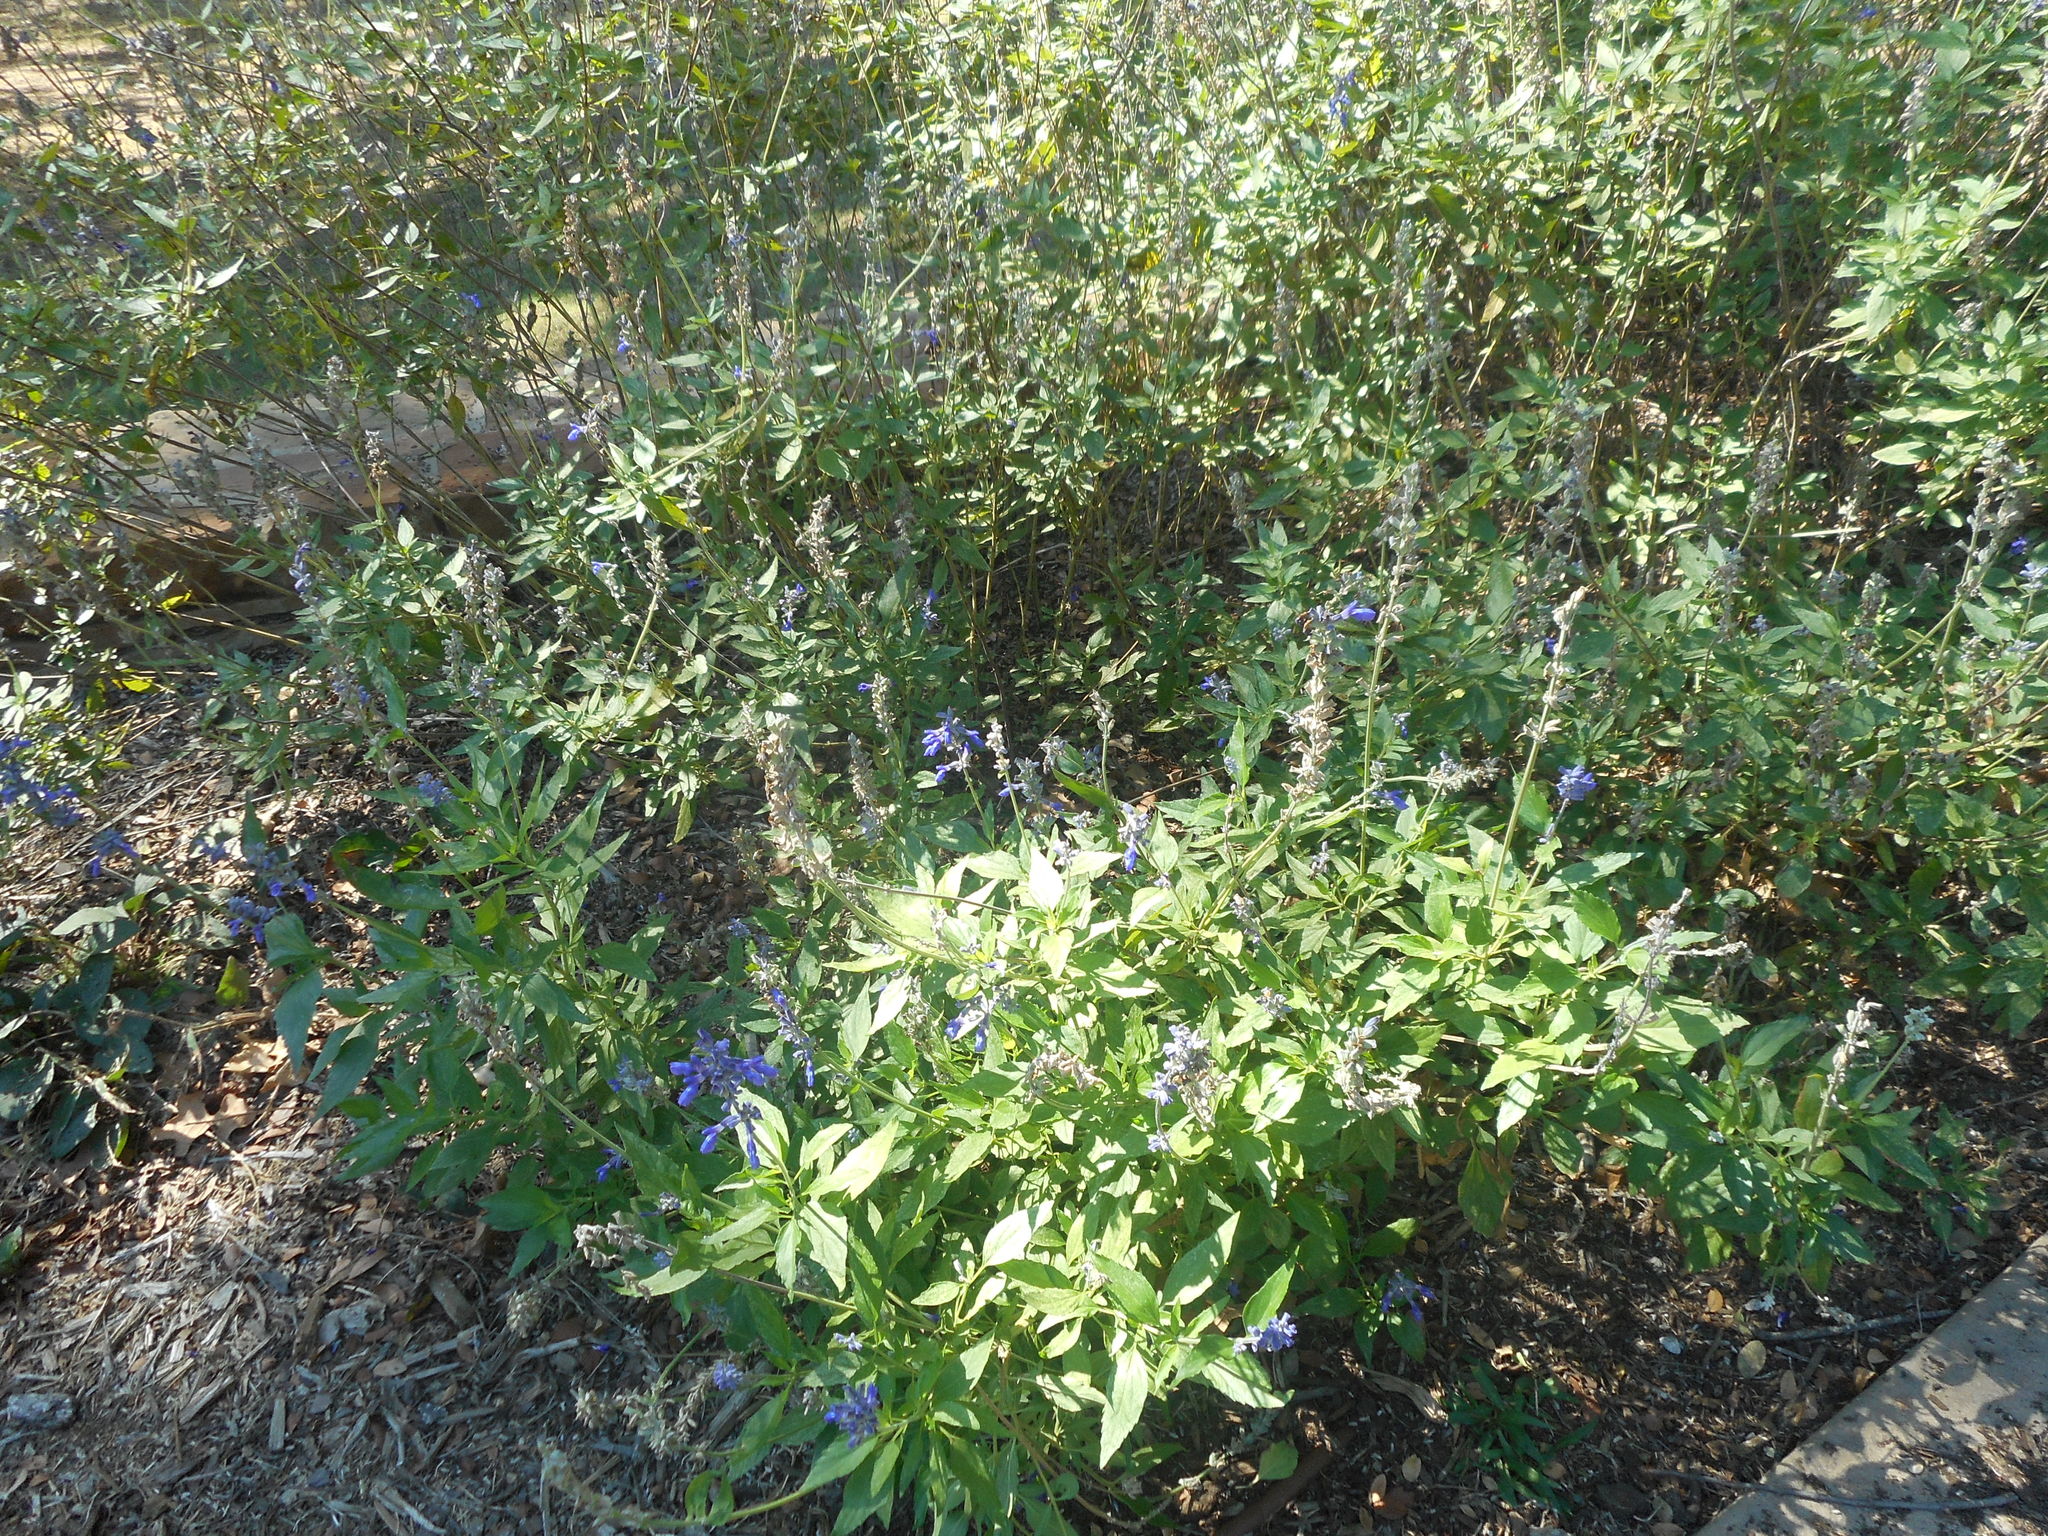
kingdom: Plantae
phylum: Tracheophyta
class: Magnoliopsida
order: Lamiales
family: Lamiaceae
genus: Salvia
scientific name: Salvia farinacea
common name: Mealy sage
